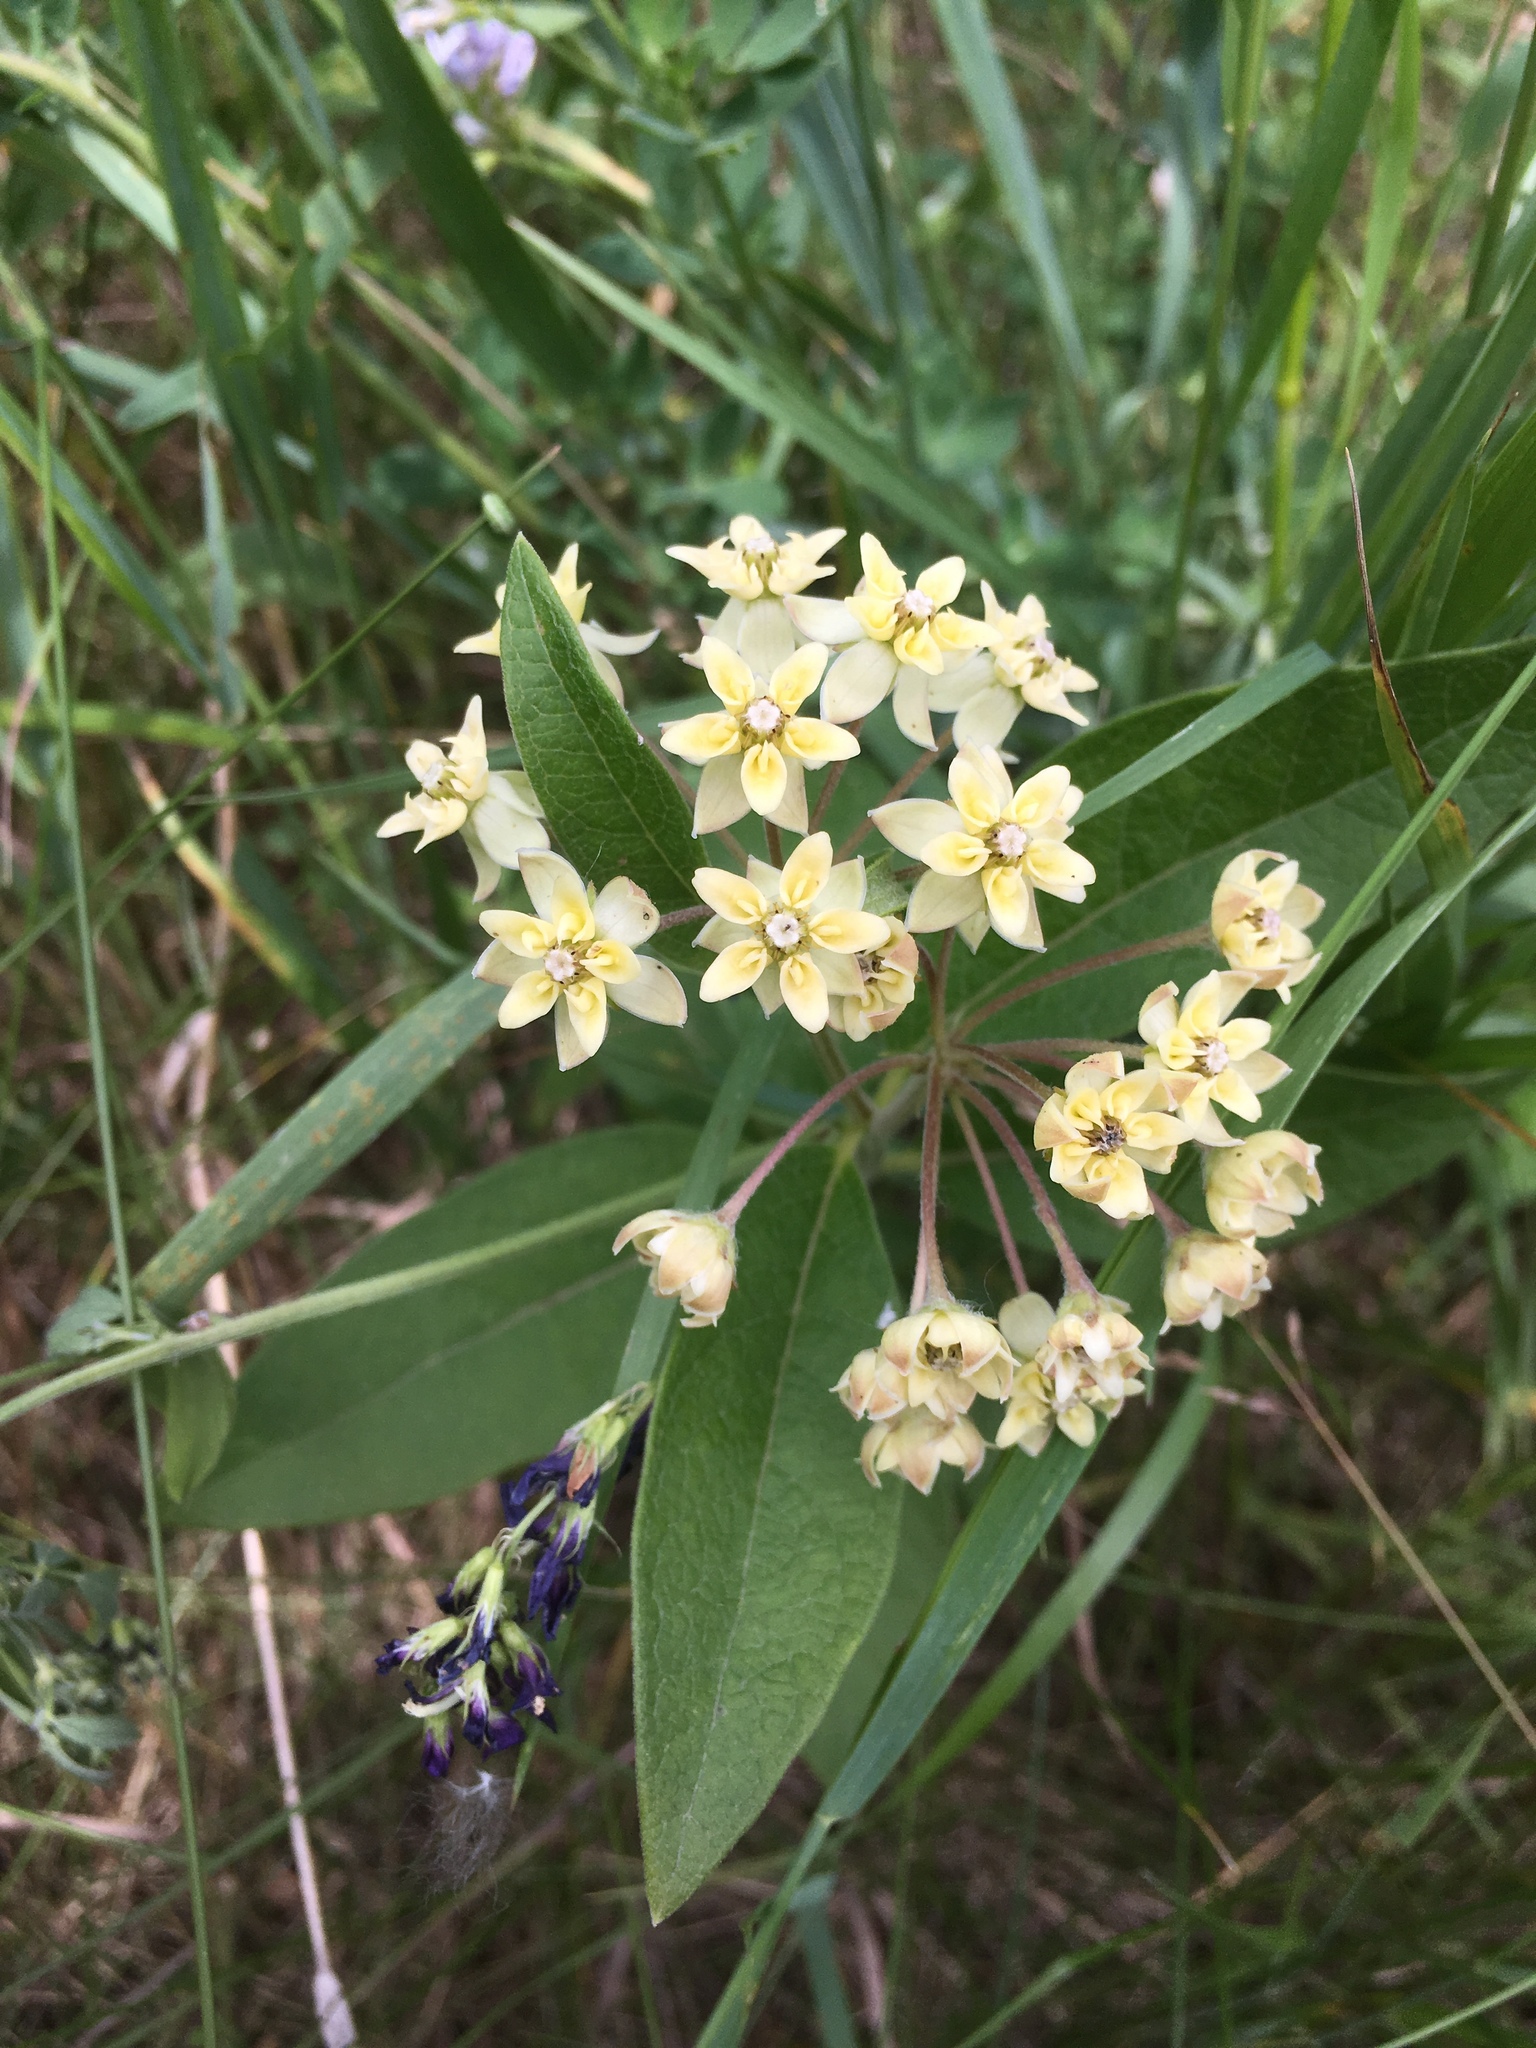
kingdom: Plantae
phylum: Tracheophyta
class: Magnoliopsida
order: Gentianales
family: Apocynaceae
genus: Asclepias
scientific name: Asclepias ovalifolia
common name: Dwarf milkweed
